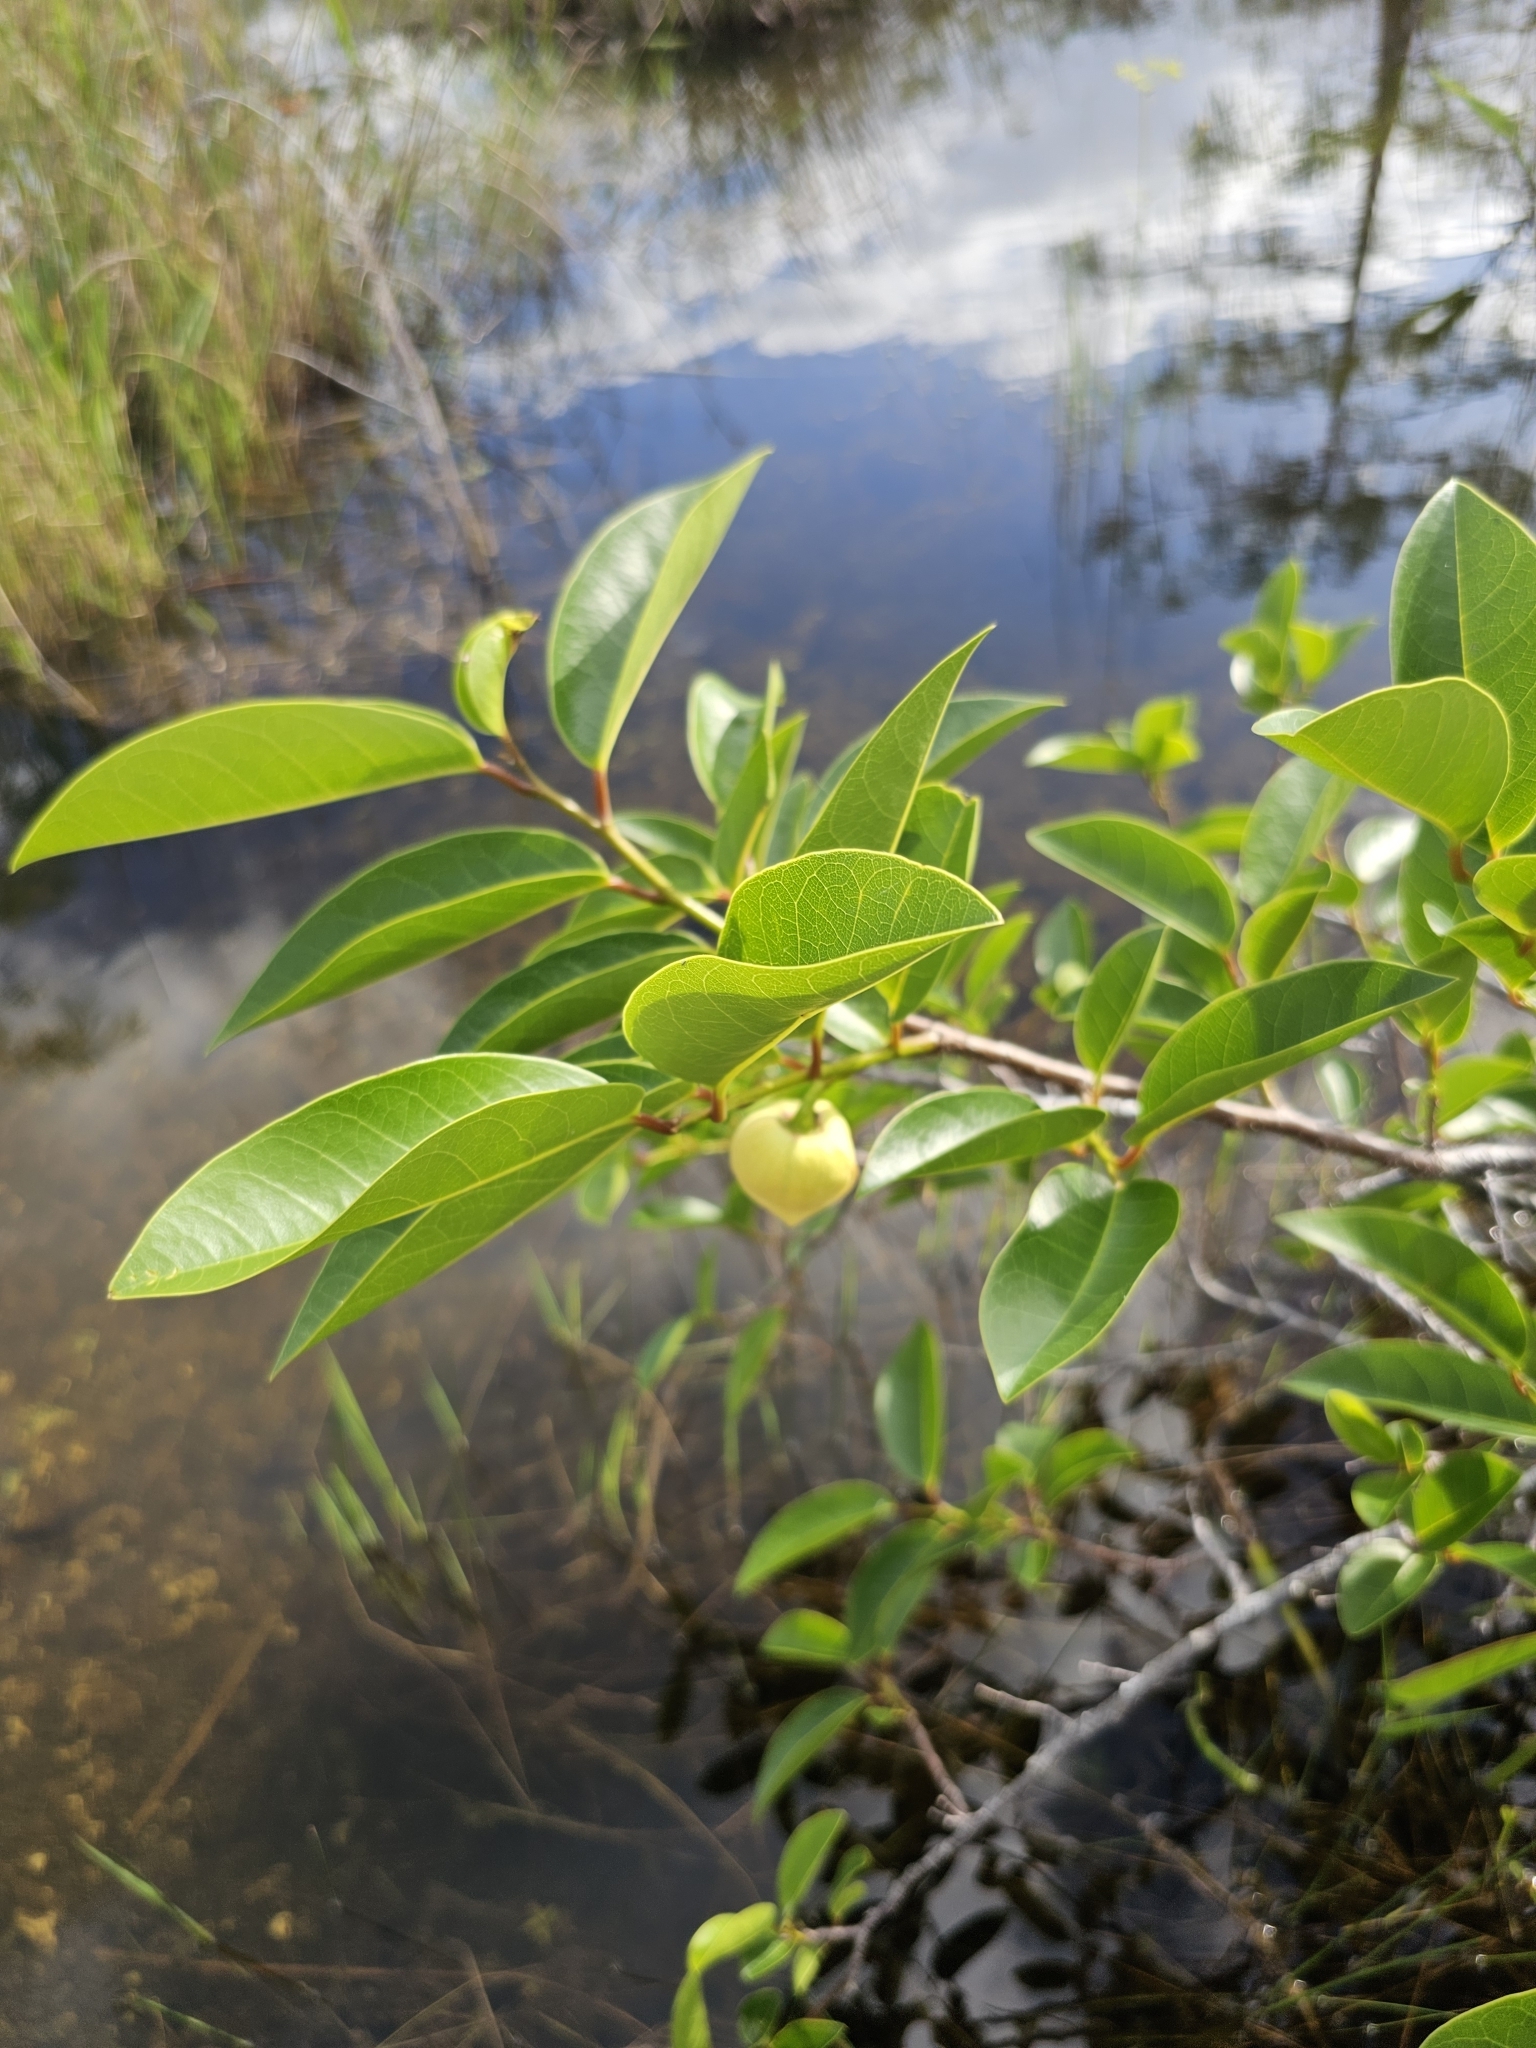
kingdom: Plantae
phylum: Tracheophyta
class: Magnoliopsida
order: Magnoliales
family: Annonaceae
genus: Annona
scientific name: Annona glabra
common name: Monkey apple
